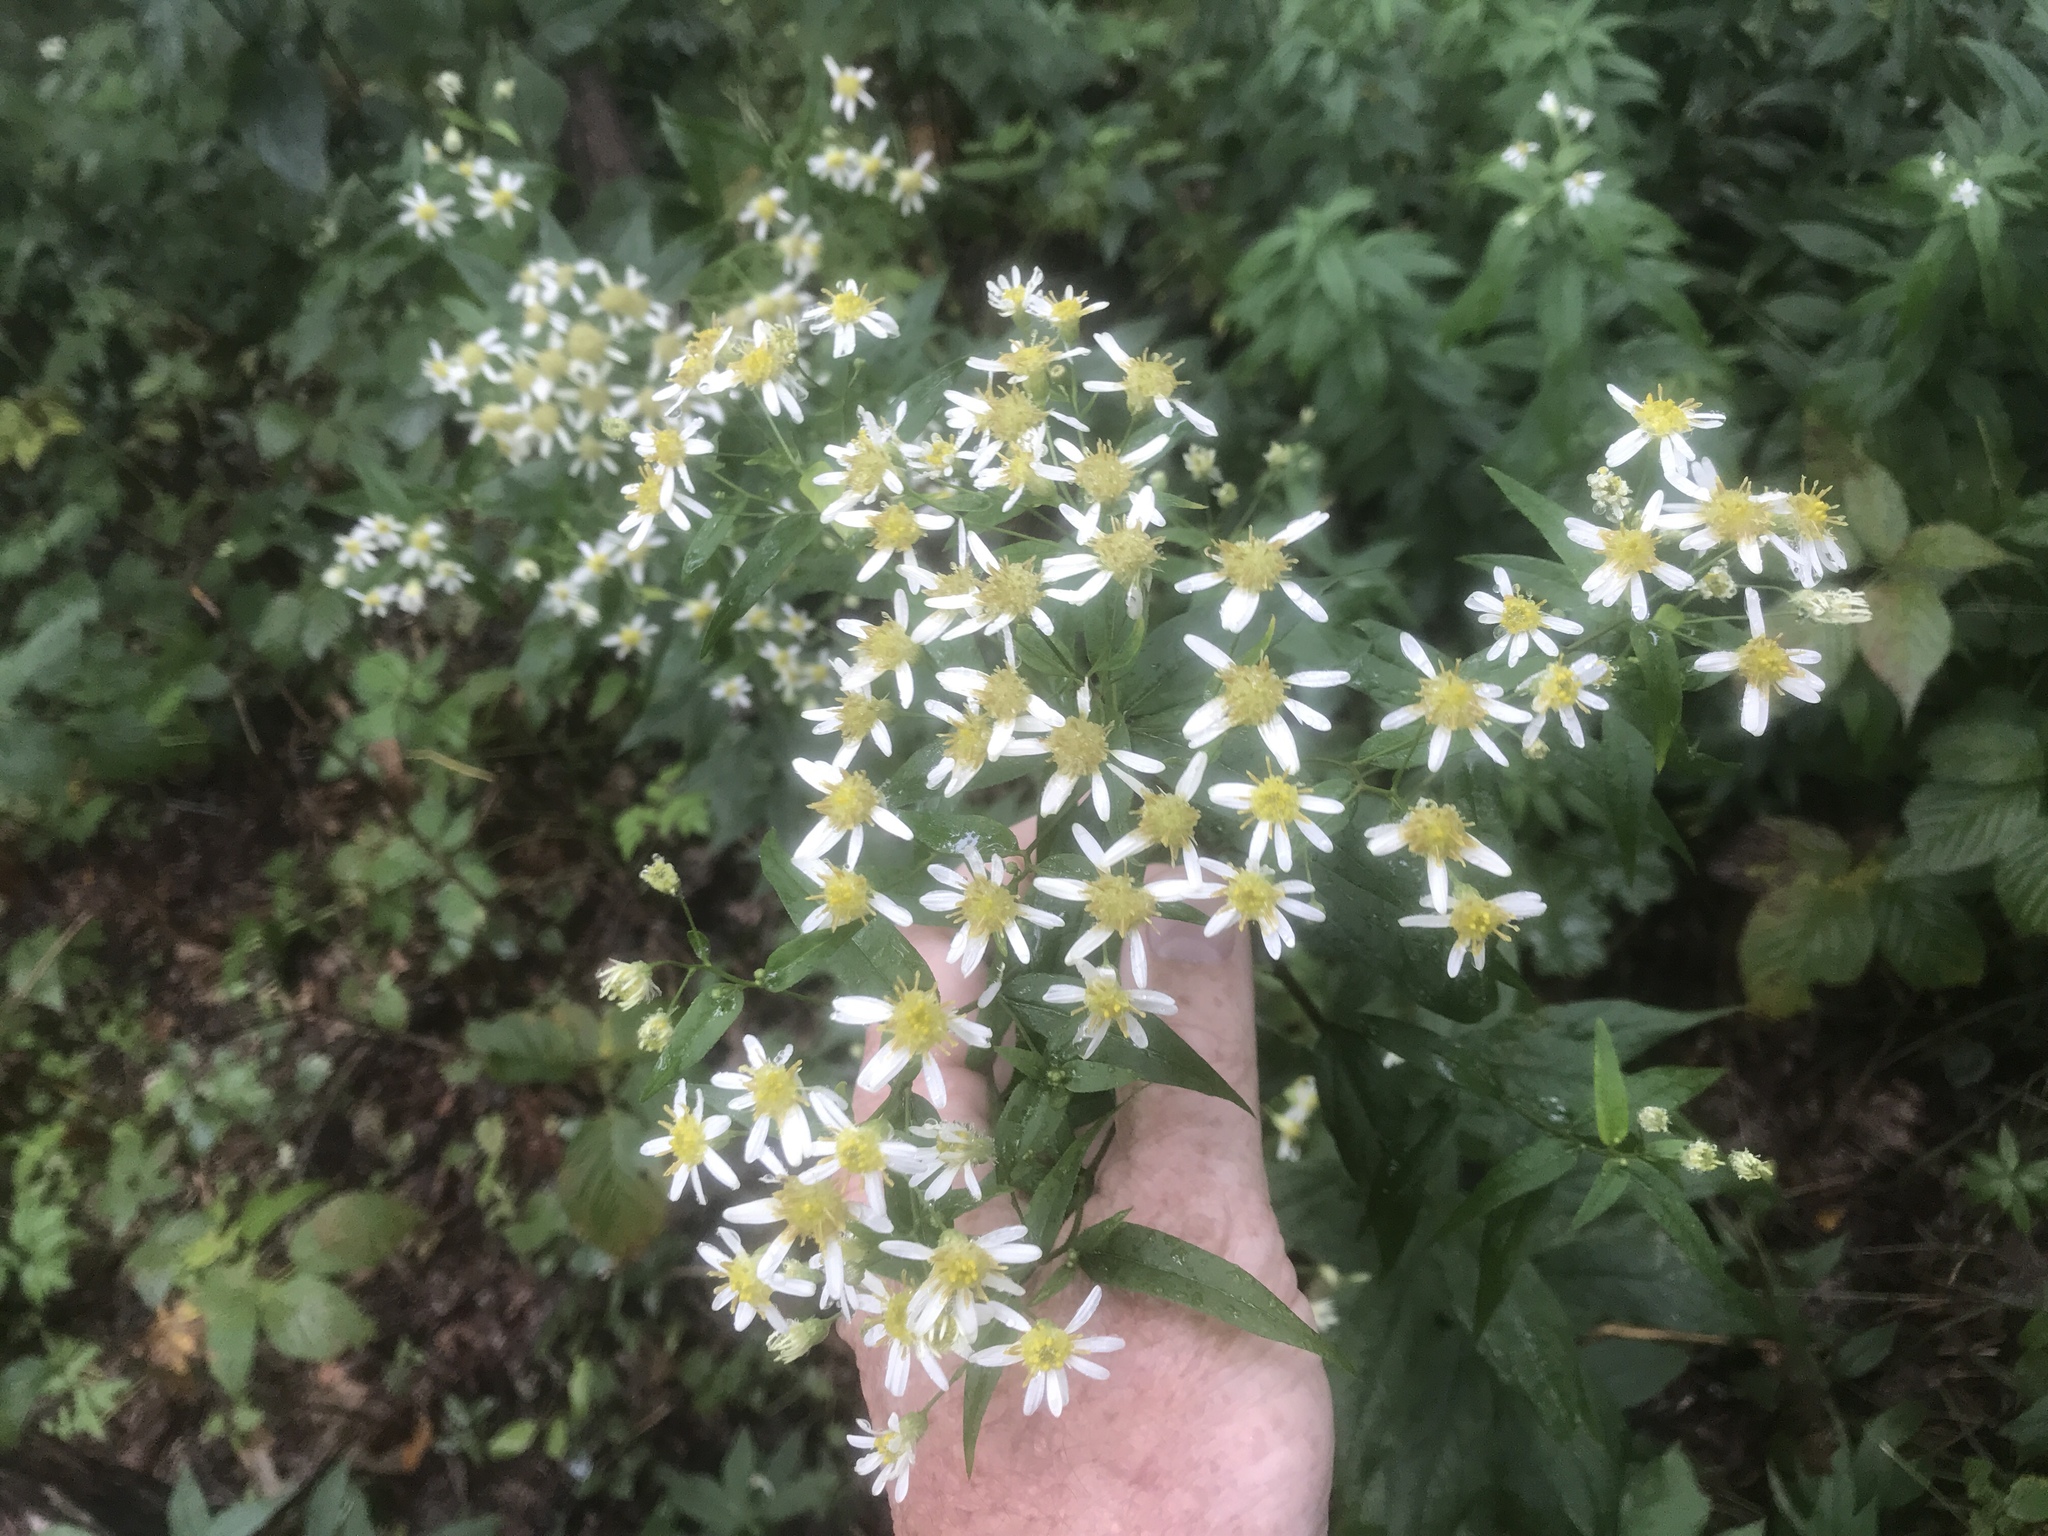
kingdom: Plantae
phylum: Tracheophyta
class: Magnoliopsida
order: Asterales
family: Asteraceae
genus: Doellingeria
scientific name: Doellingeria umbellata
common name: Flat-top white aster
